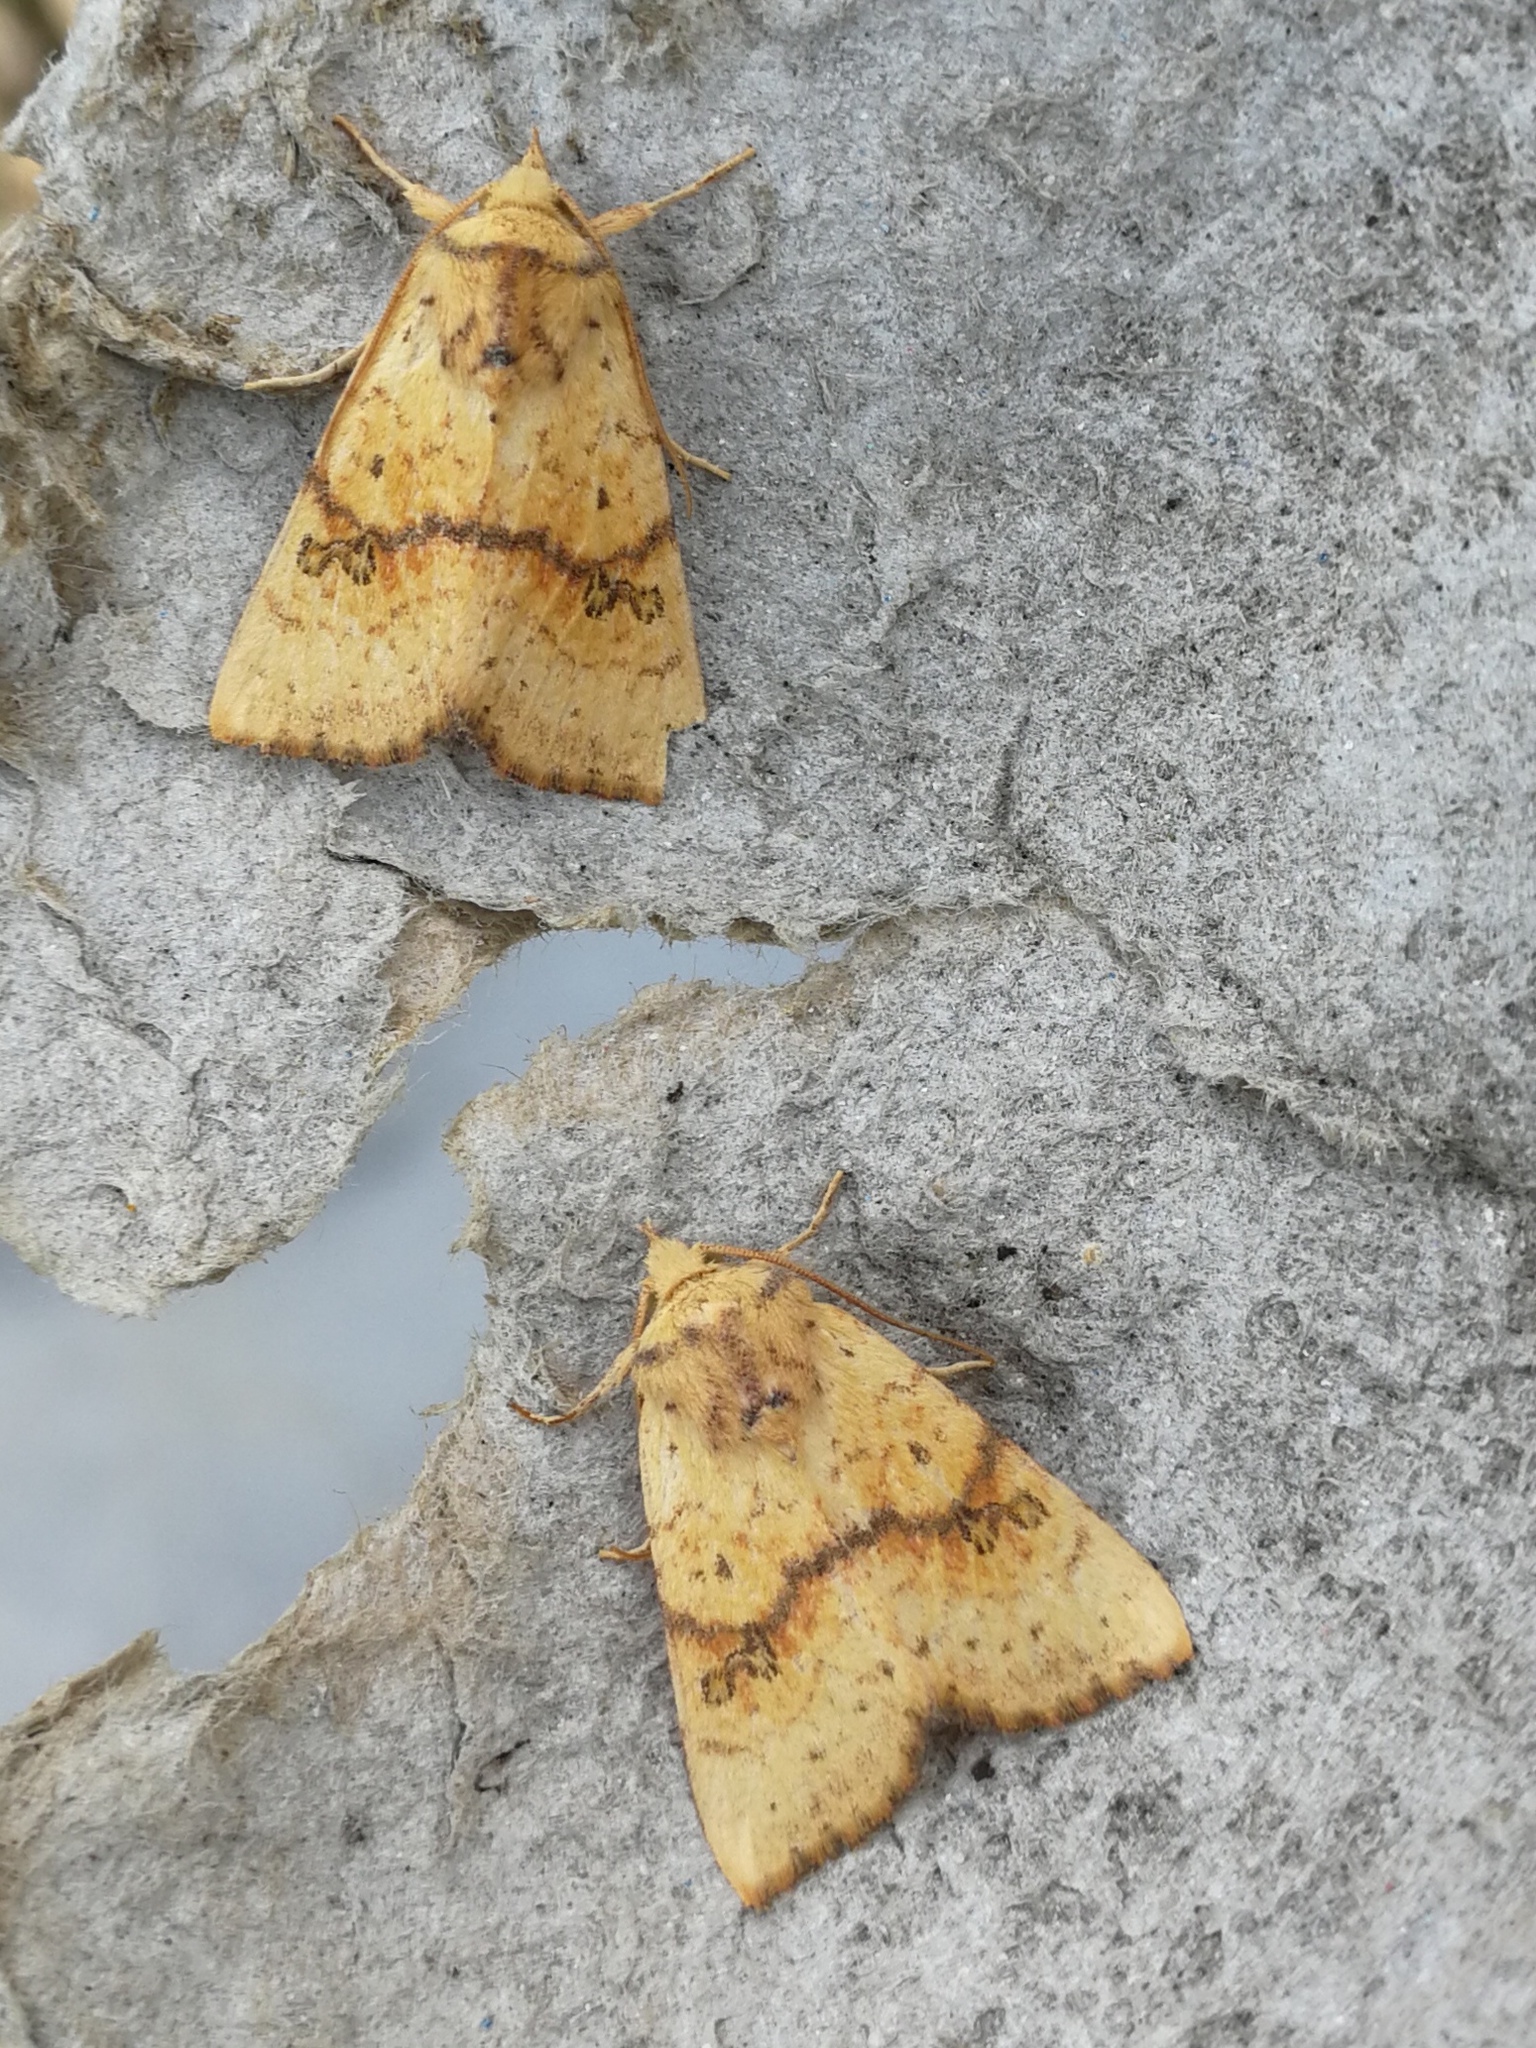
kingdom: Animalia
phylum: Arthropoda
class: Insecta
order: Lepidoptera
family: Noctuidae
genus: Tiliacea
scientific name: Tiliacea sulphurago
